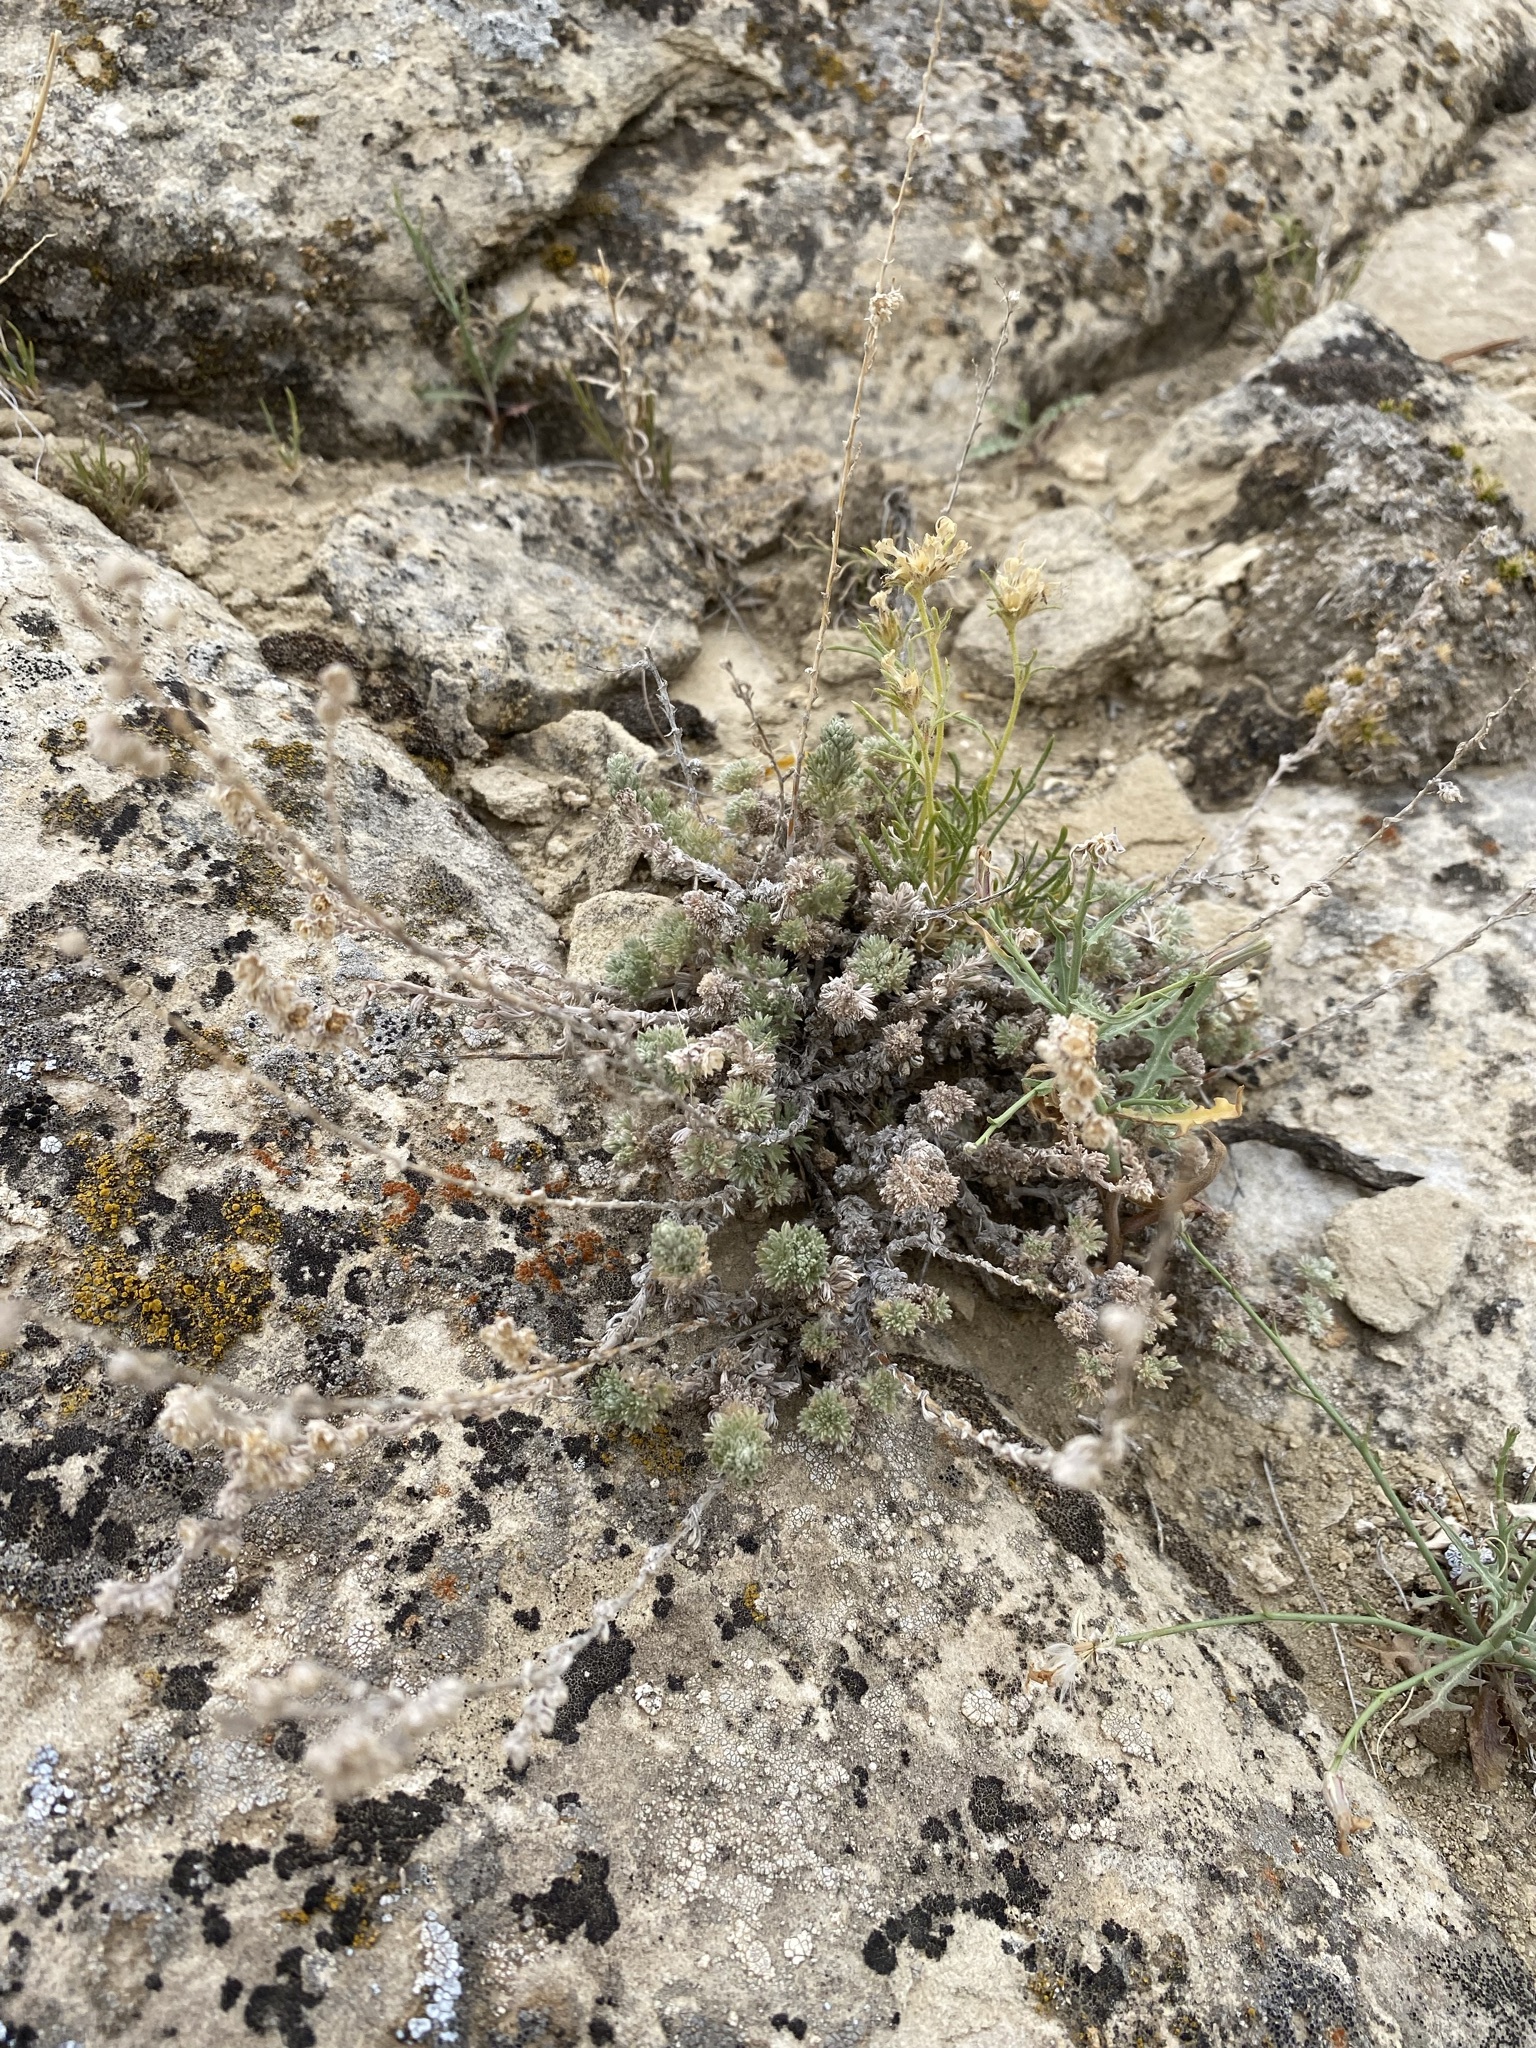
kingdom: Plantae
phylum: Tracheophyta
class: Magnoliopsida
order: Asterales
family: Asteraceae
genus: Artemisia
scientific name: Artemisia frigida
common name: Prairie sagewort
